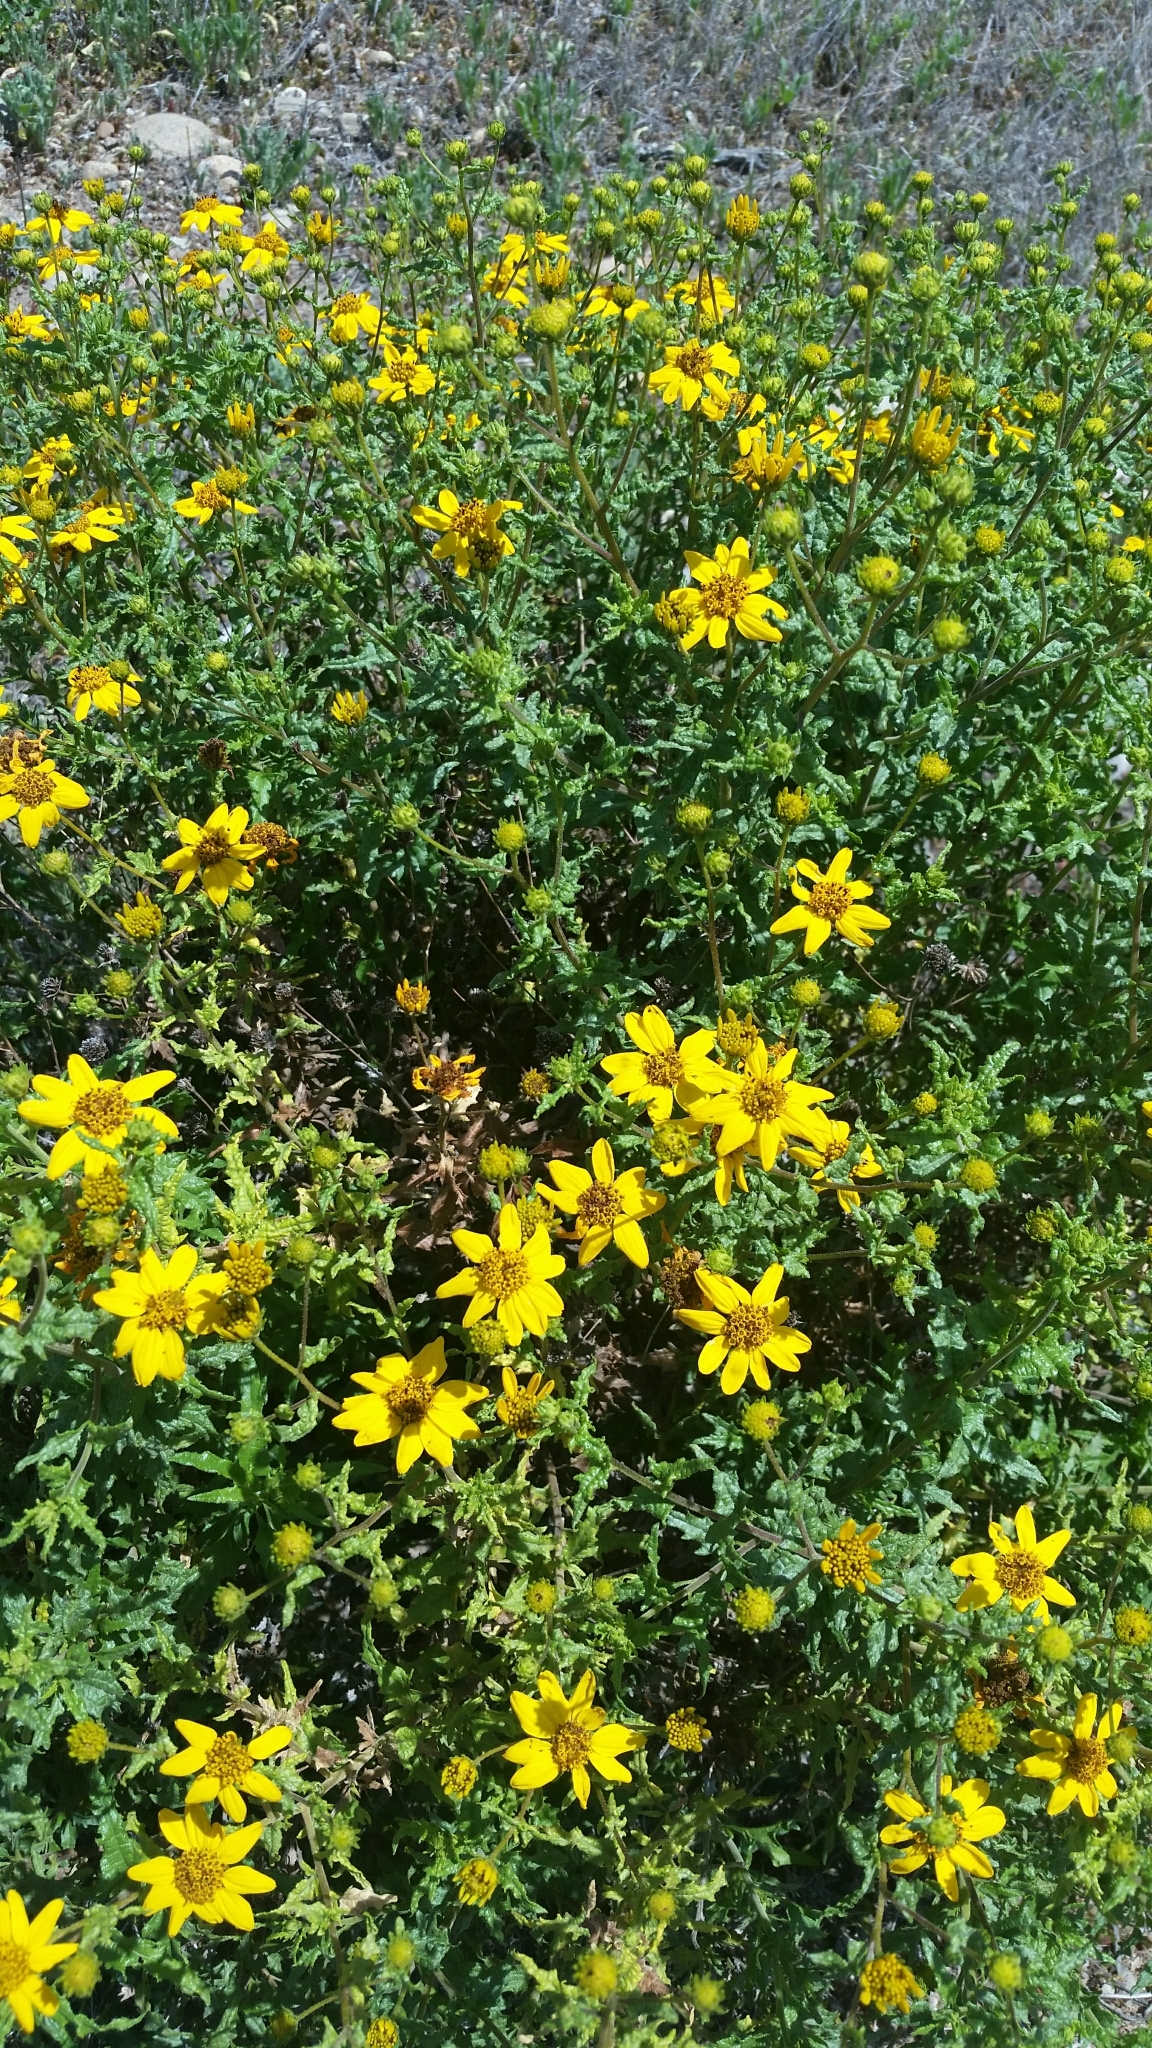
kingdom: Plantae
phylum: Tracheophyta
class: Magnoliopsida
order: Asterales
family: Asteraceae
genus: Bahiopsis
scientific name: Bahiopsis laciniata
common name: San diego county viguiera
